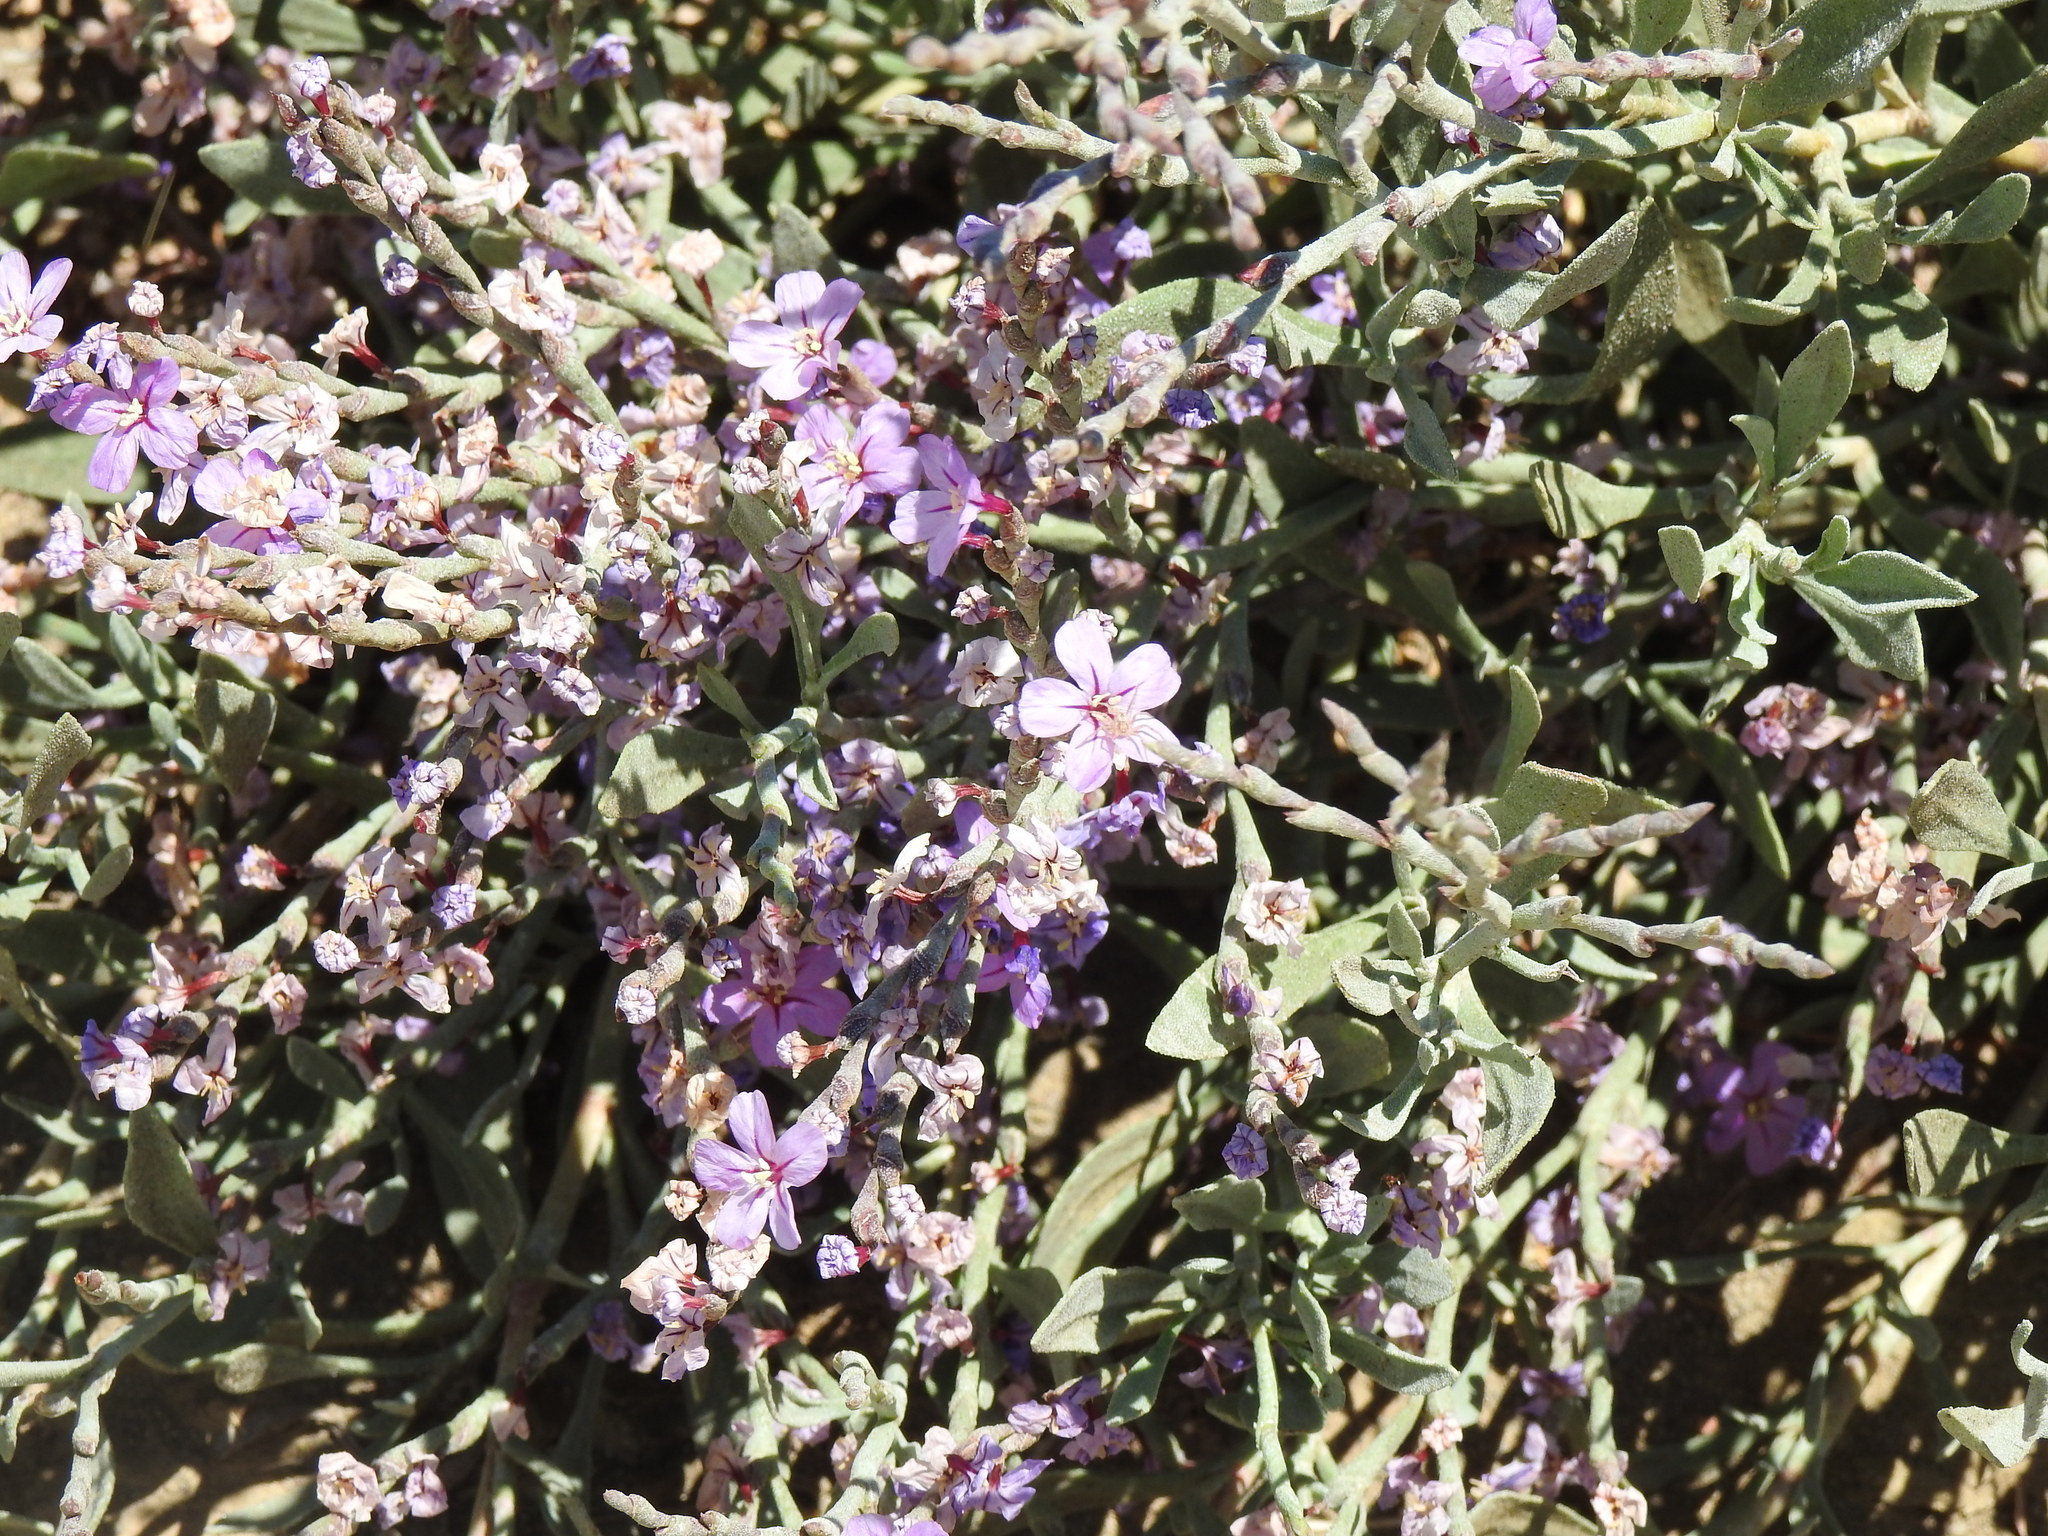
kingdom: Plantae
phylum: Tracheophyta
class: Magnoliopsida
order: Caryophyllales
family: Plumbaginaceae
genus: Limoniastrum
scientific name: Limoniastrum monopetalum
